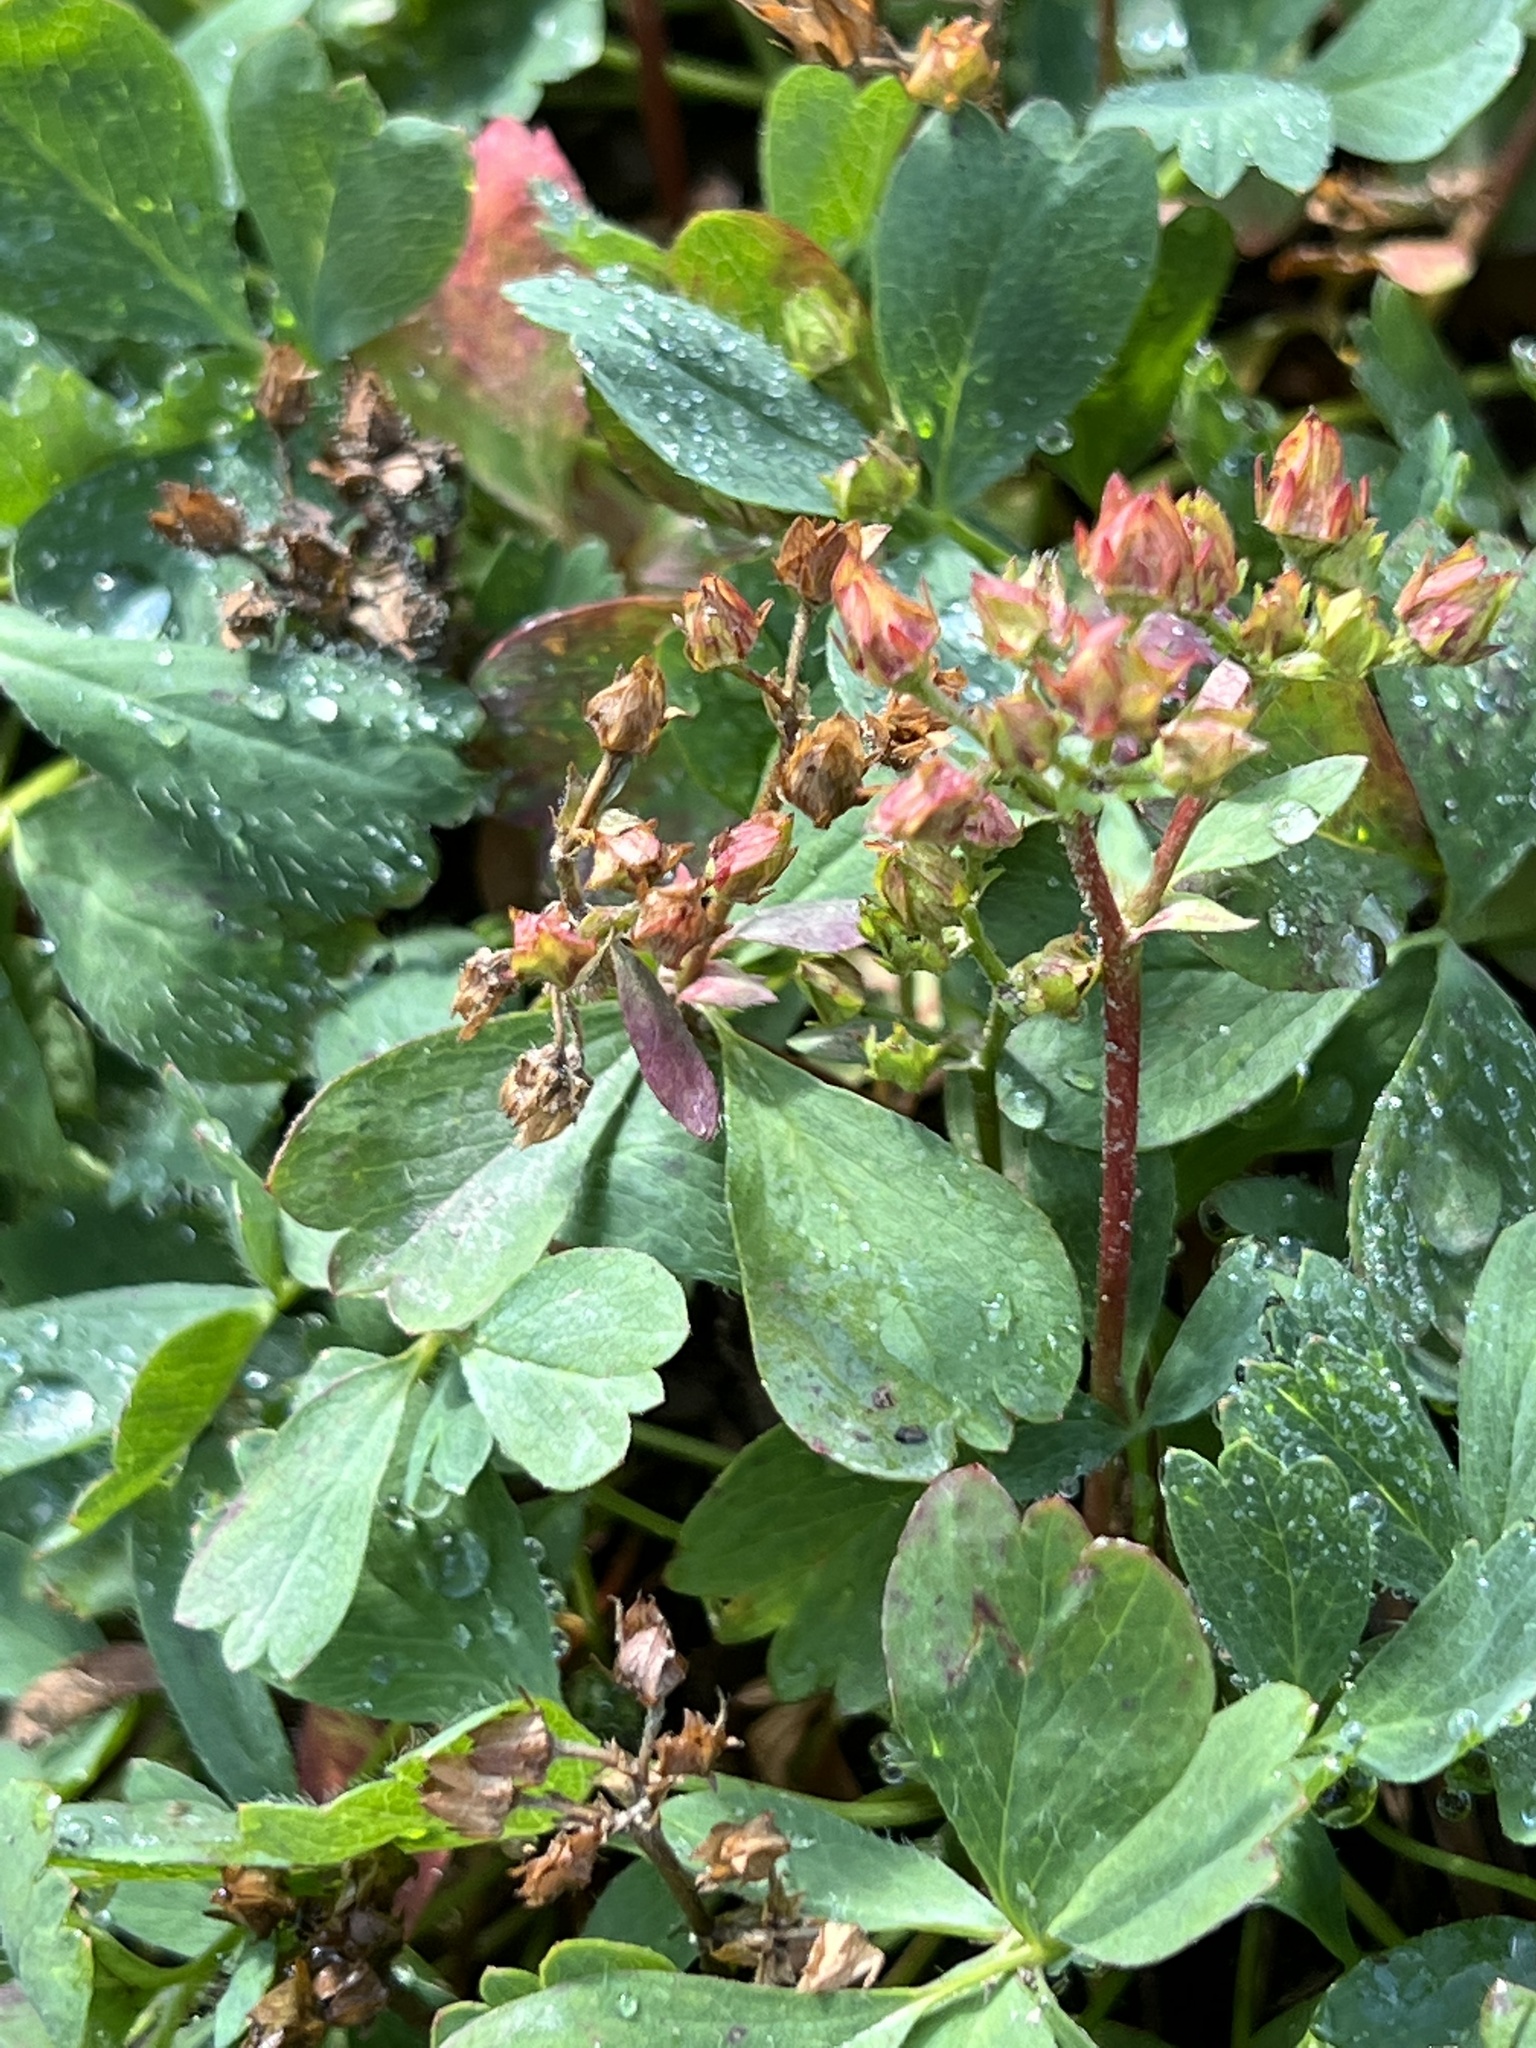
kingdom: Plantae
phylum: Tracheophyta
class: Magnoliopsida
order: Rosales
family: Rosaceae
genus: Sibbaldia
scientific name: Sibbaldia procumbens
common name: Creeping sibbaldia
